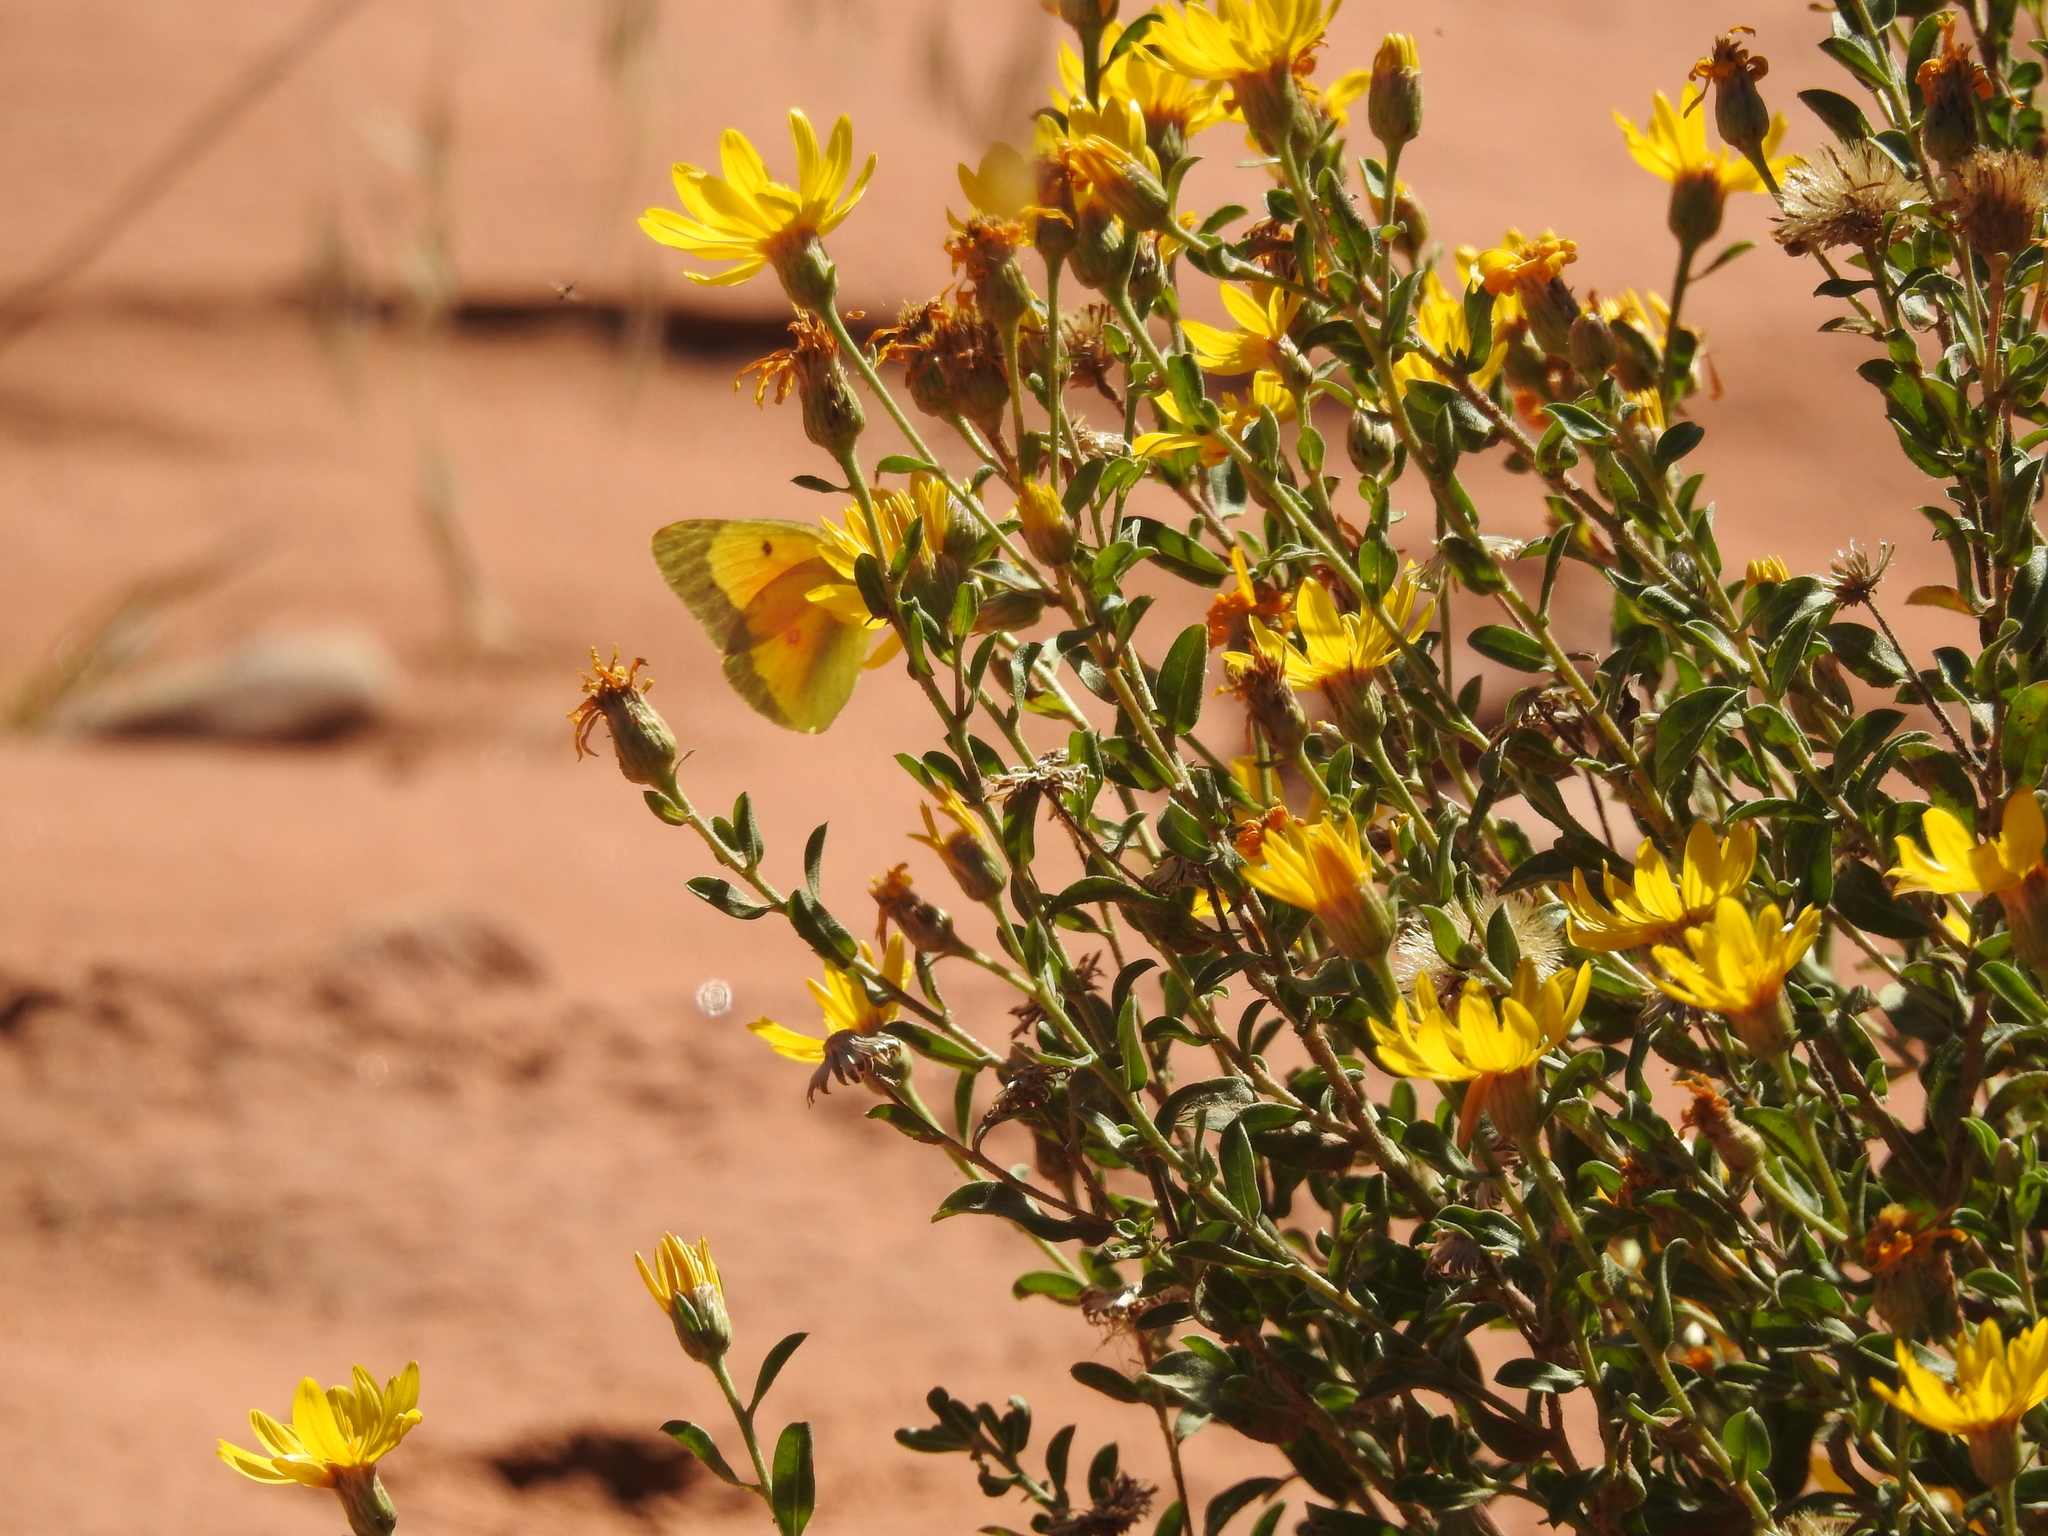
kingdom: Animalia
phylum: Arthropoda
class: Insecta
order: Lepidoptera
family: Pieridae
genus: Colias
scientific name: Colias eurytheme
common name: Alfalfa butterfly
